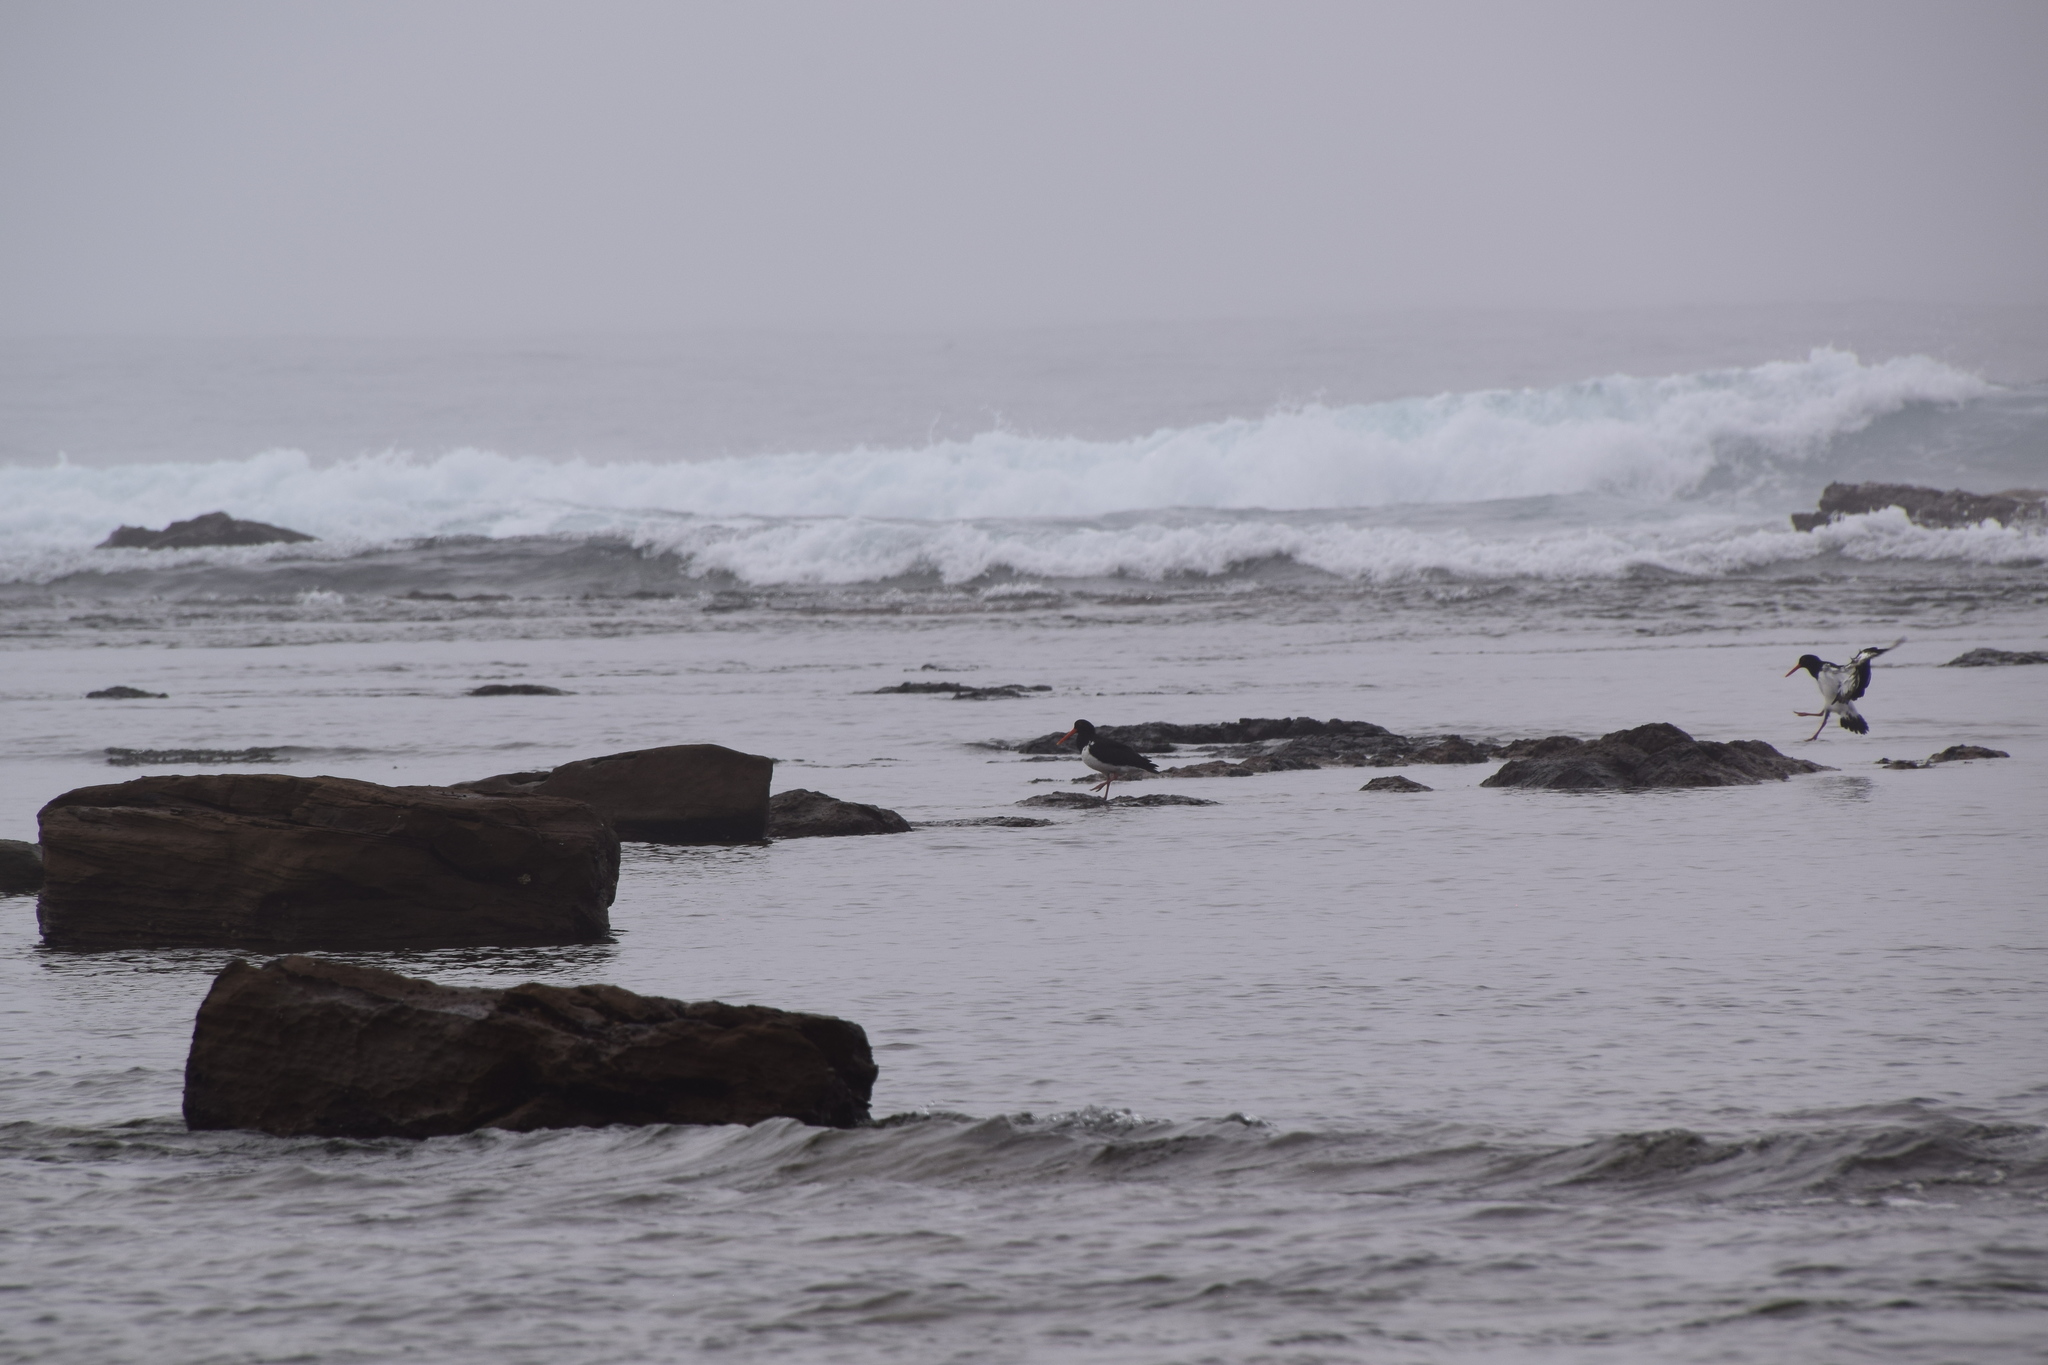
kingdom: Animalia
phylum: Chordata
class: Aves
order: Charadriiformes
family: Haematopodidae
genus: Haematopus
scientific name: Haematopus longirostris
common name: Pied oystercatcher
